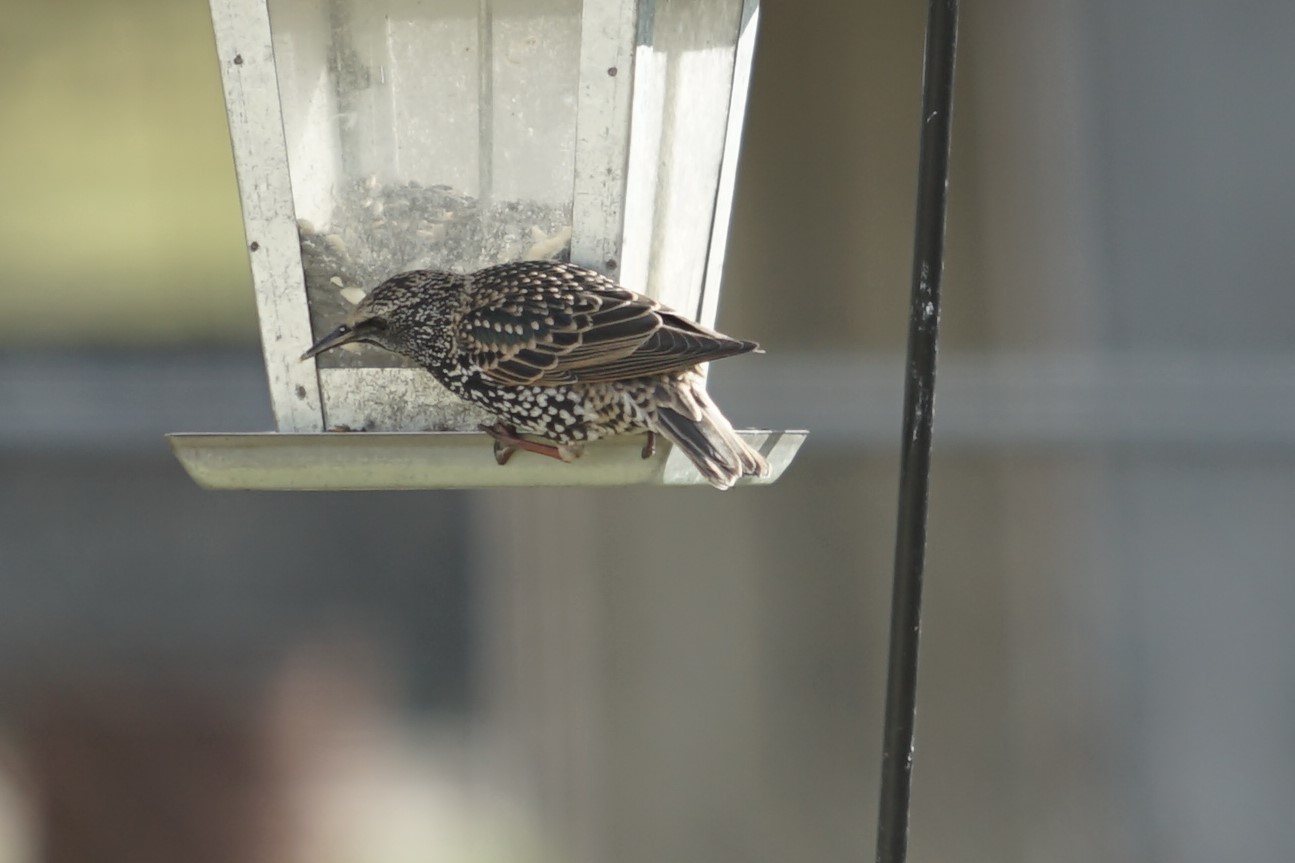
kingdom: Animalia
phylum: Chordata
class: Aves
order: Passeriformes
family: Sturnidae
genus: Sturnus
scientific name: Sturnus vulgaris
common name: Common starling
